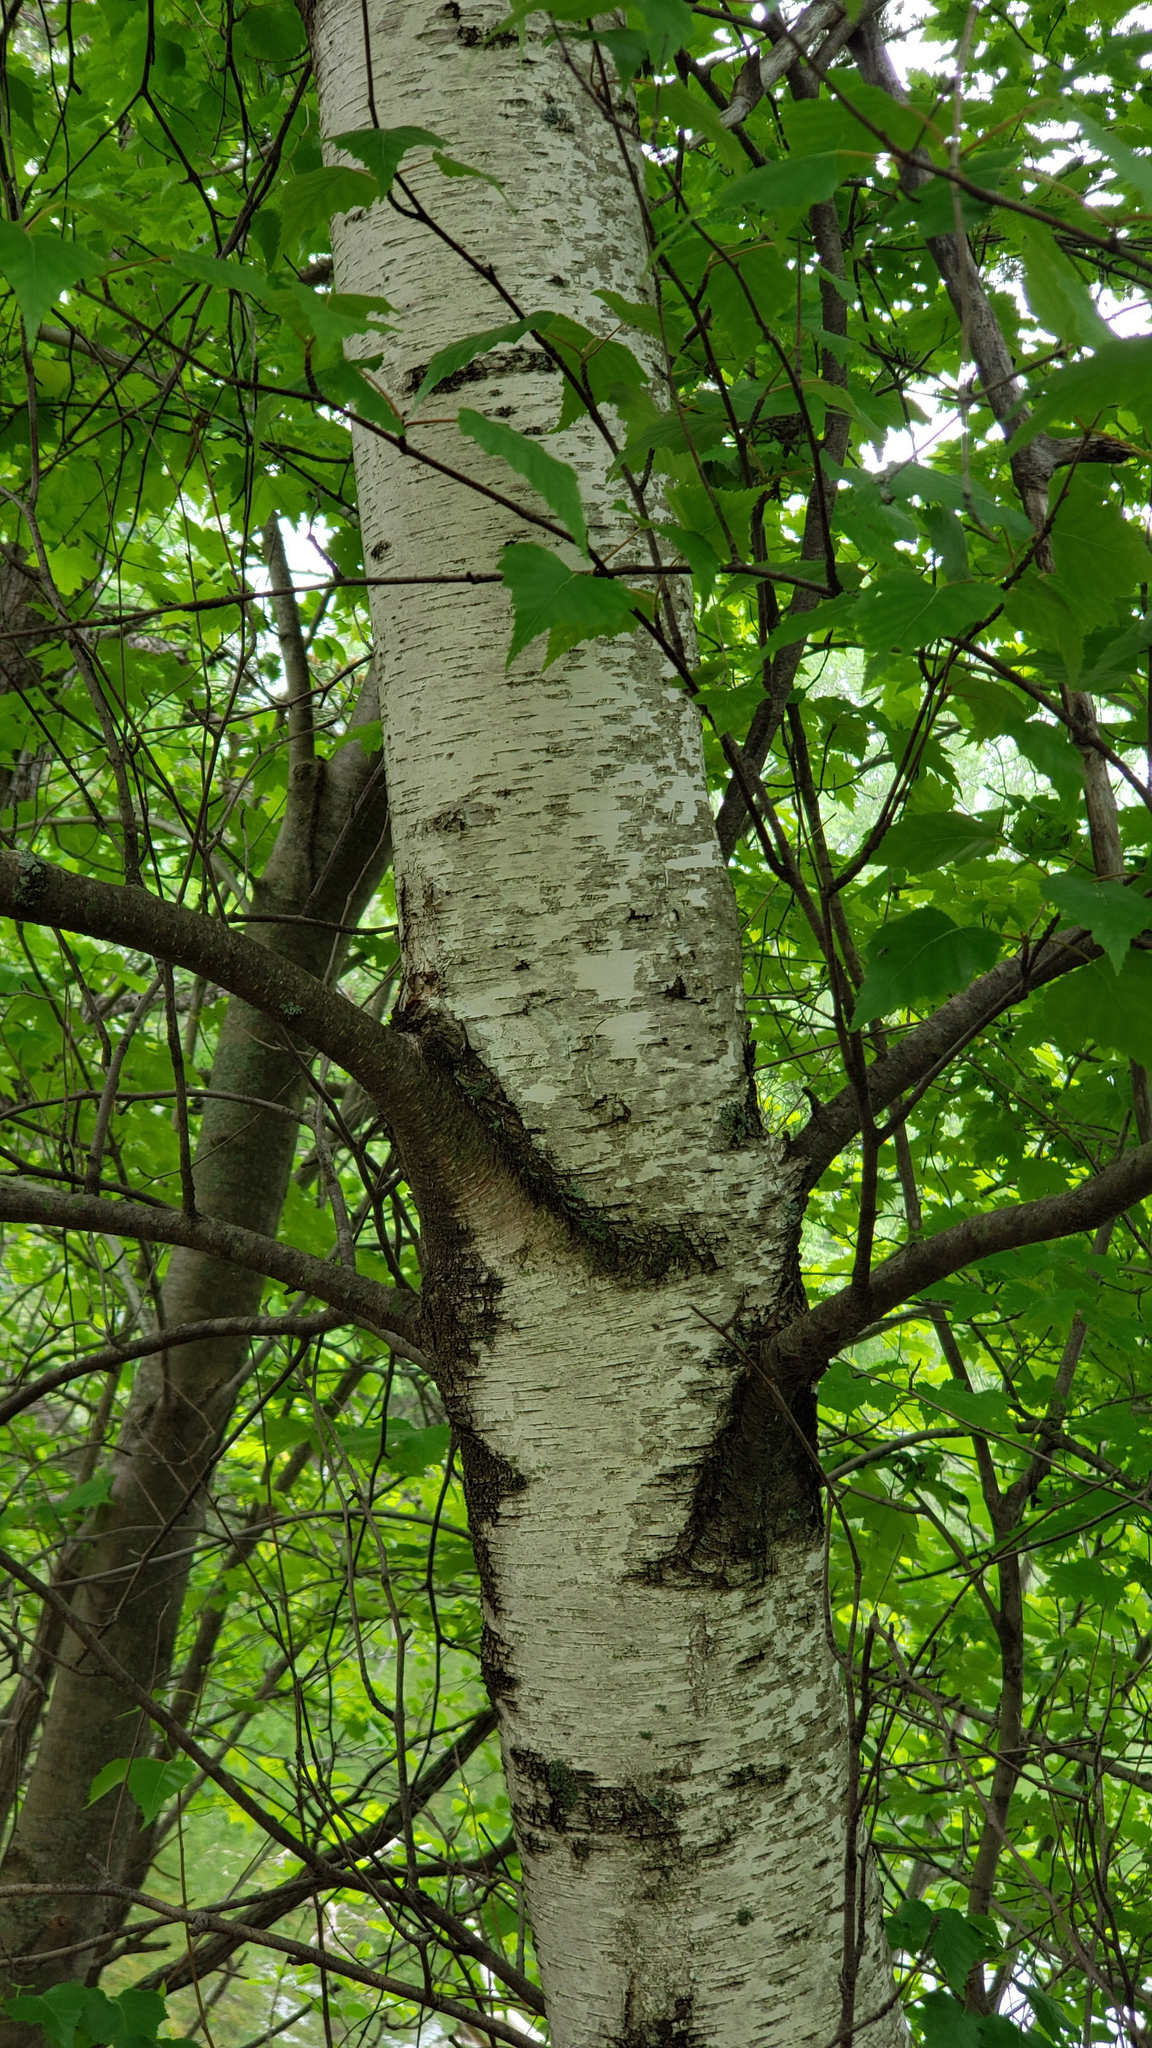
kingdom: Plantae
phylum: Tracheophyta
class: Magnoliopsida
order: Fagales
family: Betulaceae
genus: Betula
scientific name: Betula populifolia
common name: Fire birch
